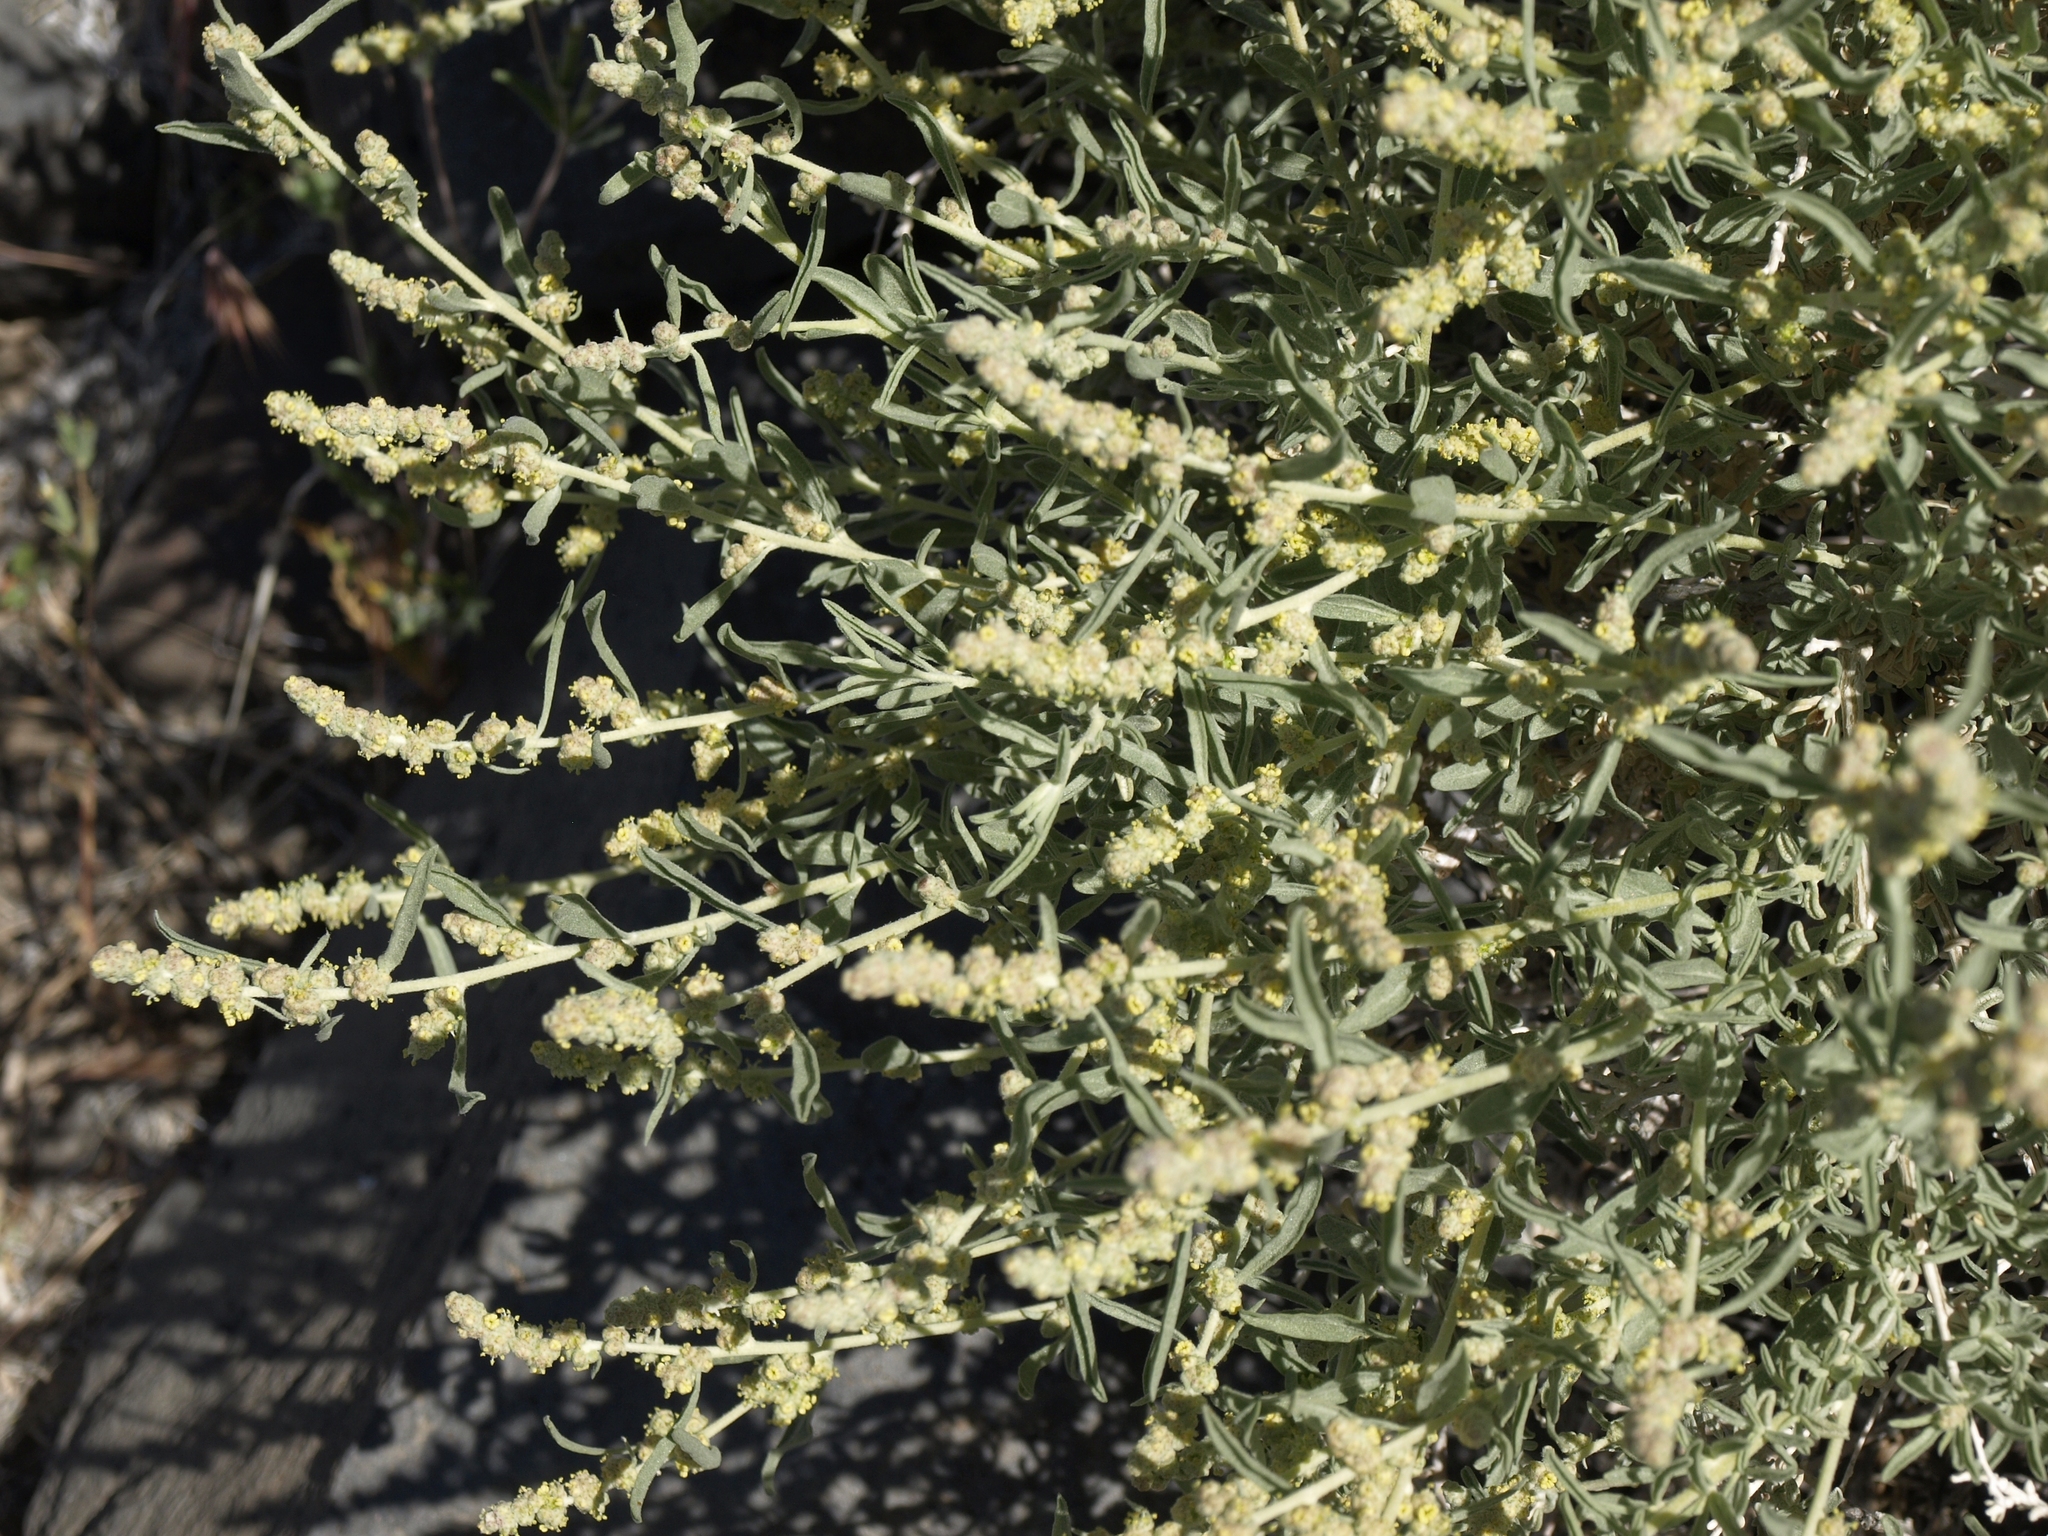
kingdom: Plantae
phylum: Tracheophyta
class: Magnoliopsida
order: Caryophyllales
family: Amaranthaceae
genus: Atriplex
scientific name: Atriplex canescens
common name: Four-wing saltbush
